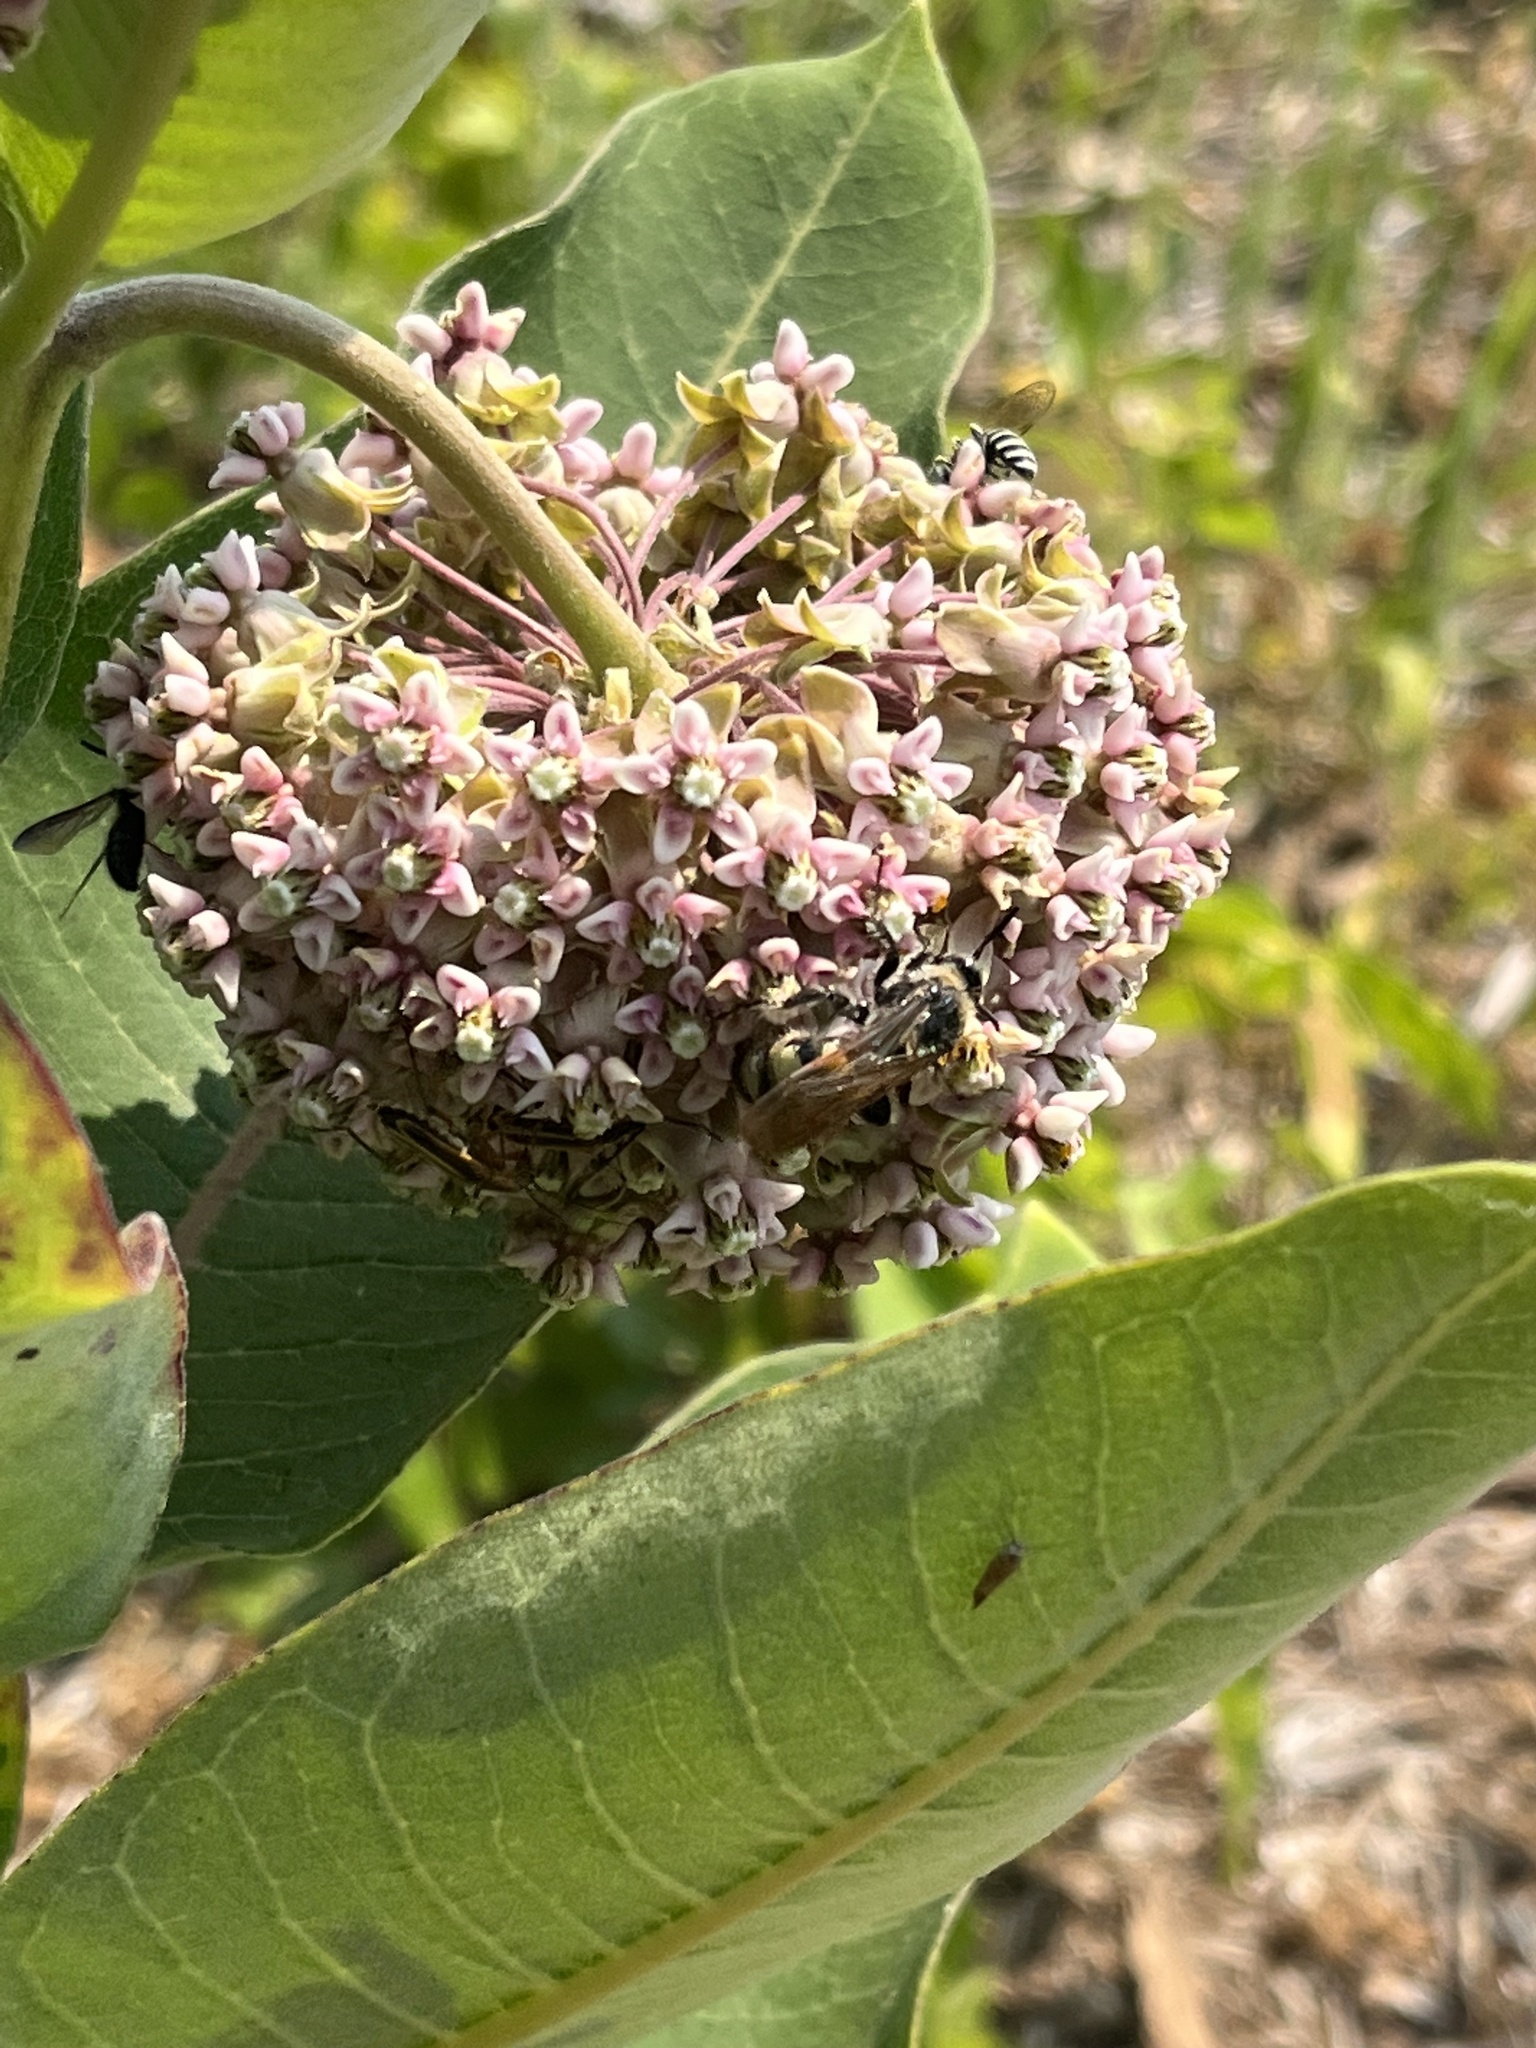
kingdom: Animalia
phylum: Arthropoda
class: Insecta
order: Hymenoptera
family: Scoliidae
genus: Dielis
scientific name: Dielis
